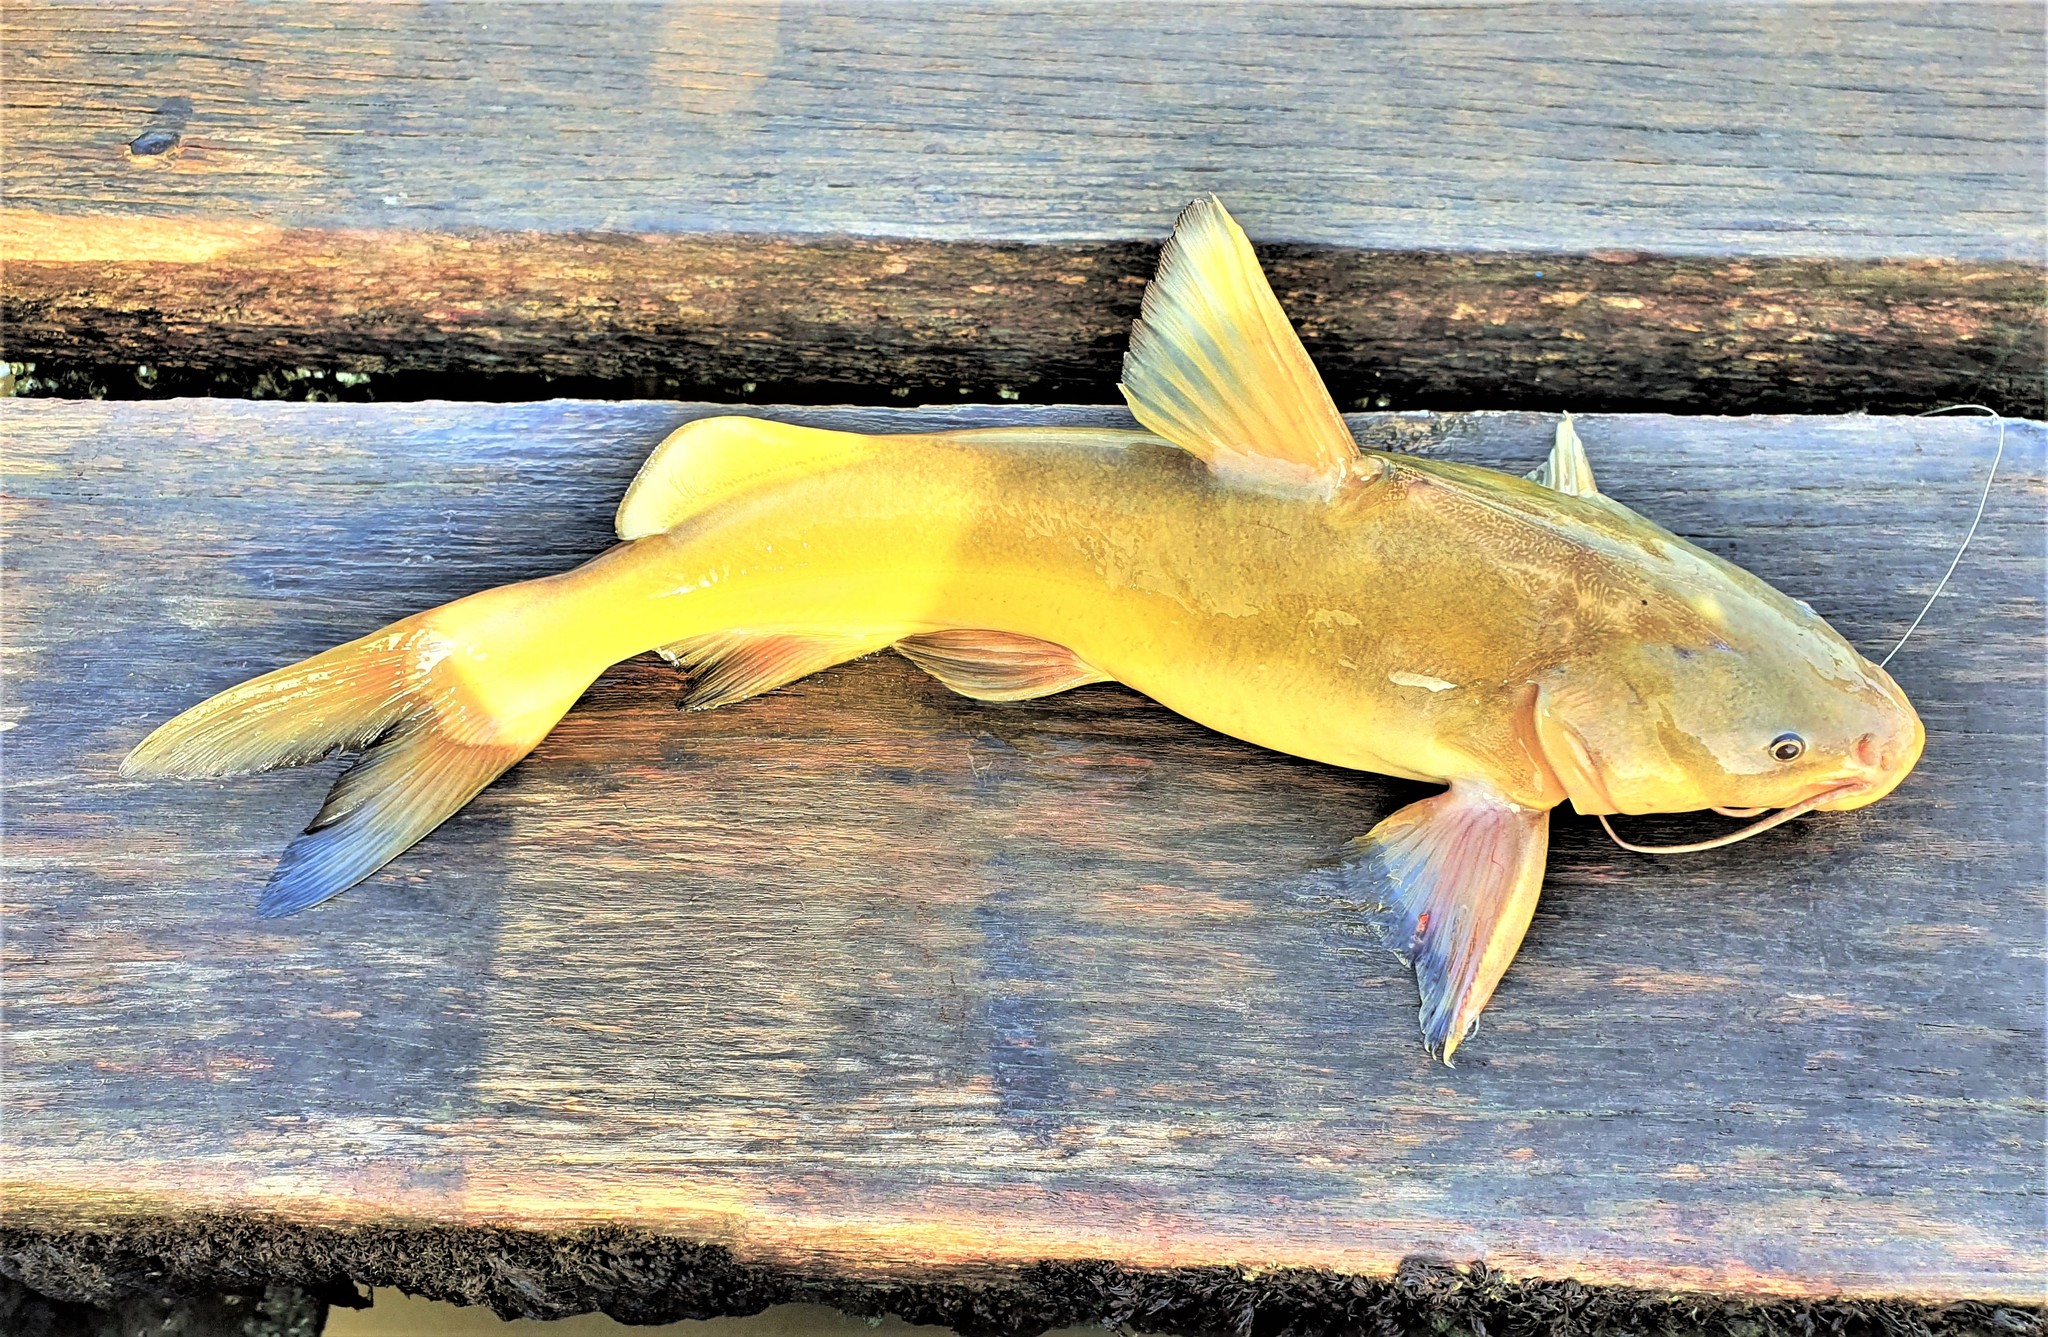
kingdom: Animalia
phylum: Chordata
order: Siluriformes
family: Ariidae
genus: Sciades
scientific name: Sciades parkeri
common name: Geelbuik sea catfish
